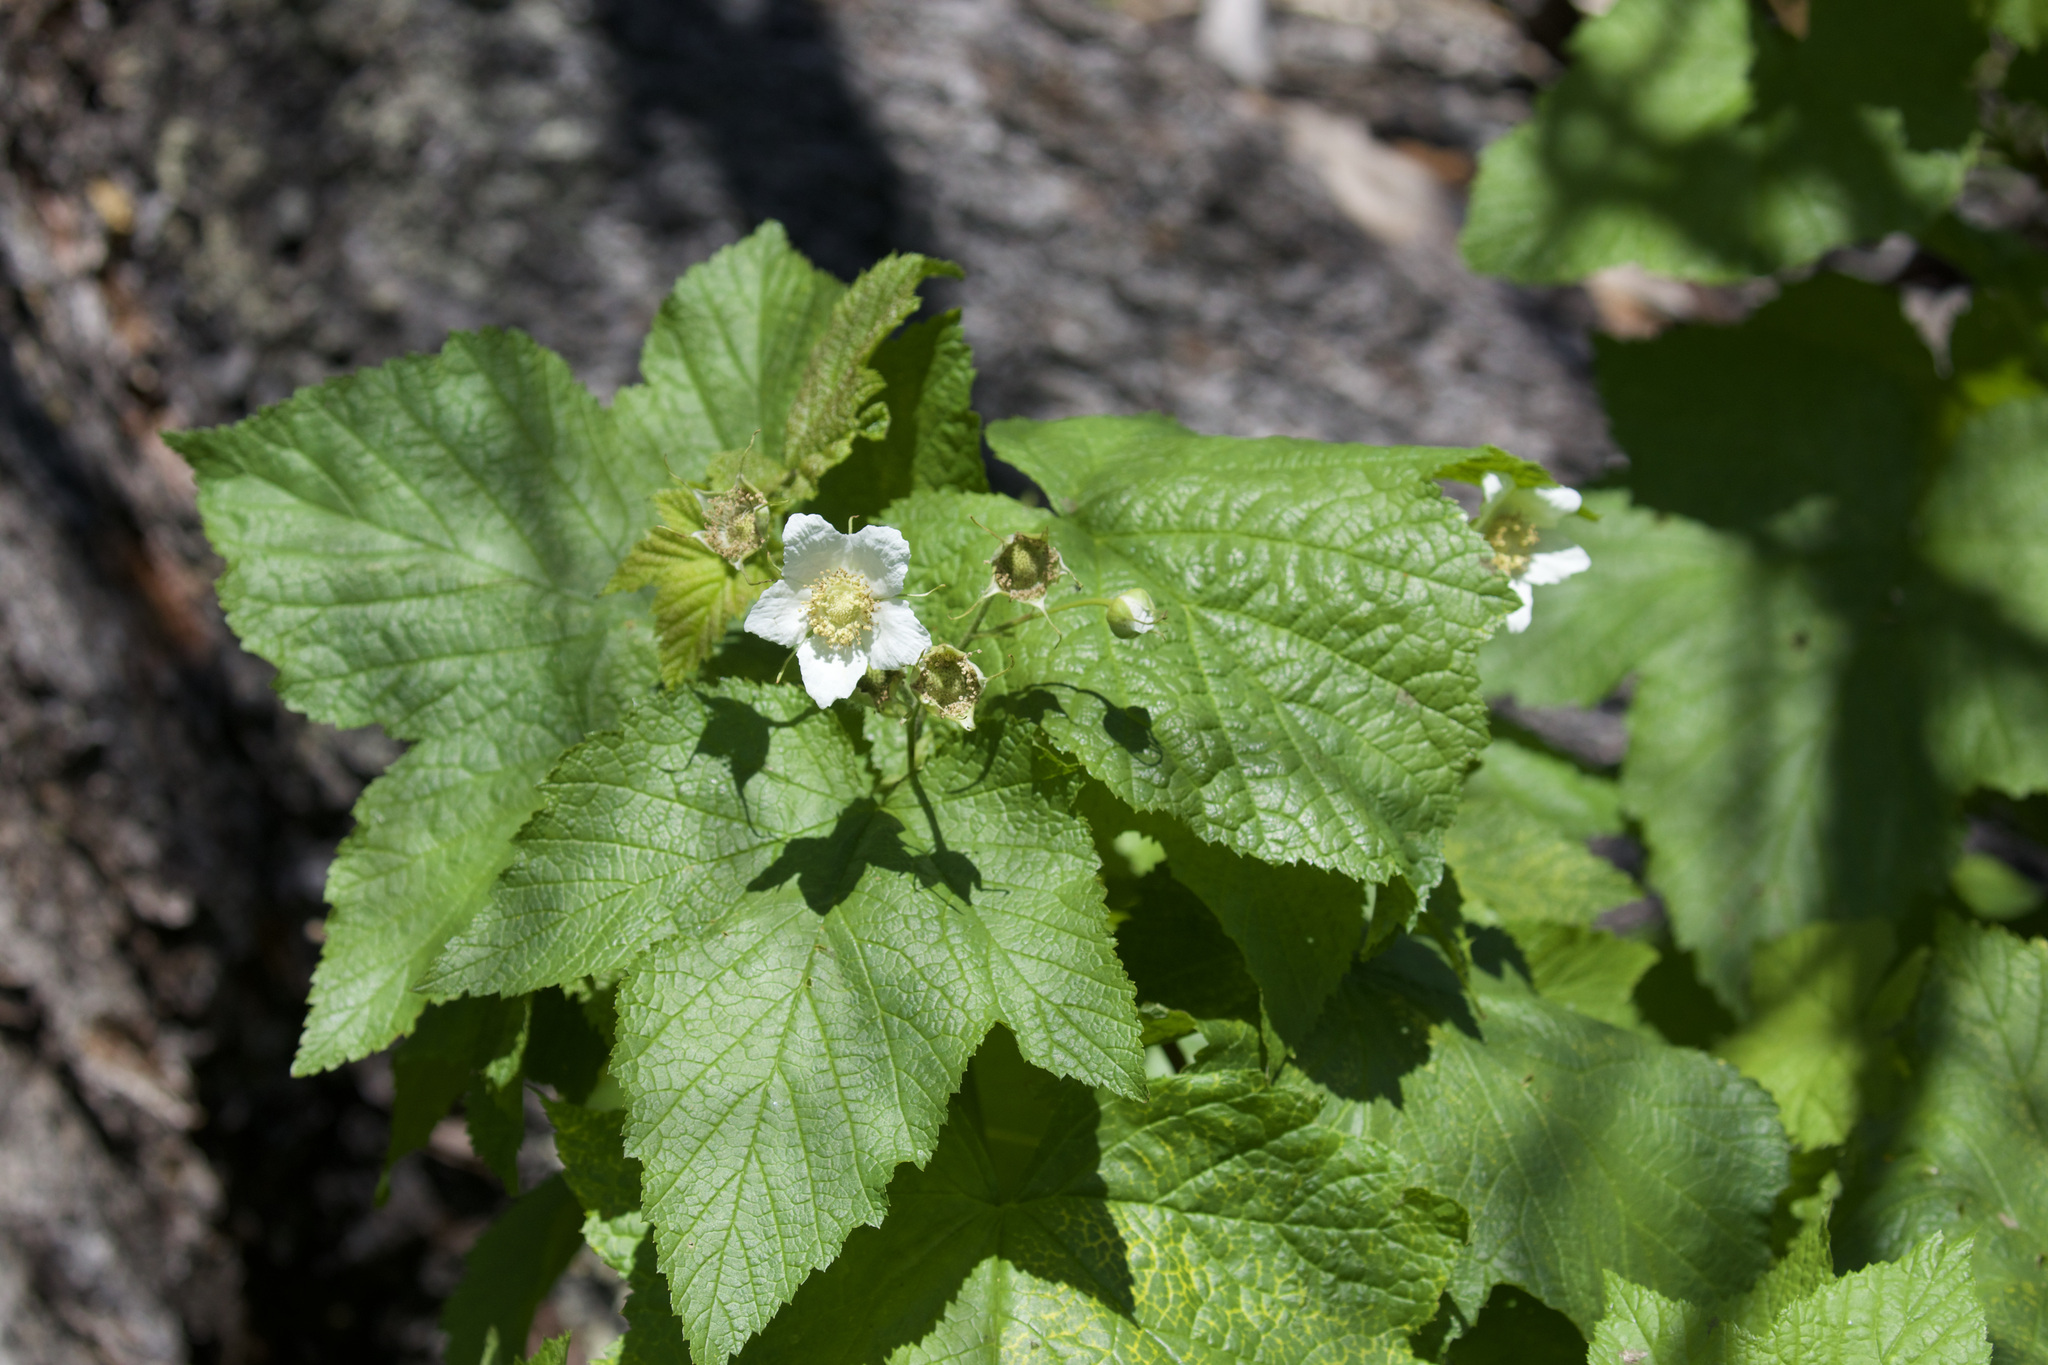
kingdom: Plantae
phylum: Tracheophyta
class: Magnoliopsida
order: Rosales
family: Rosaceae
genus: Rubus
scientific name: Rubus parviflorus
